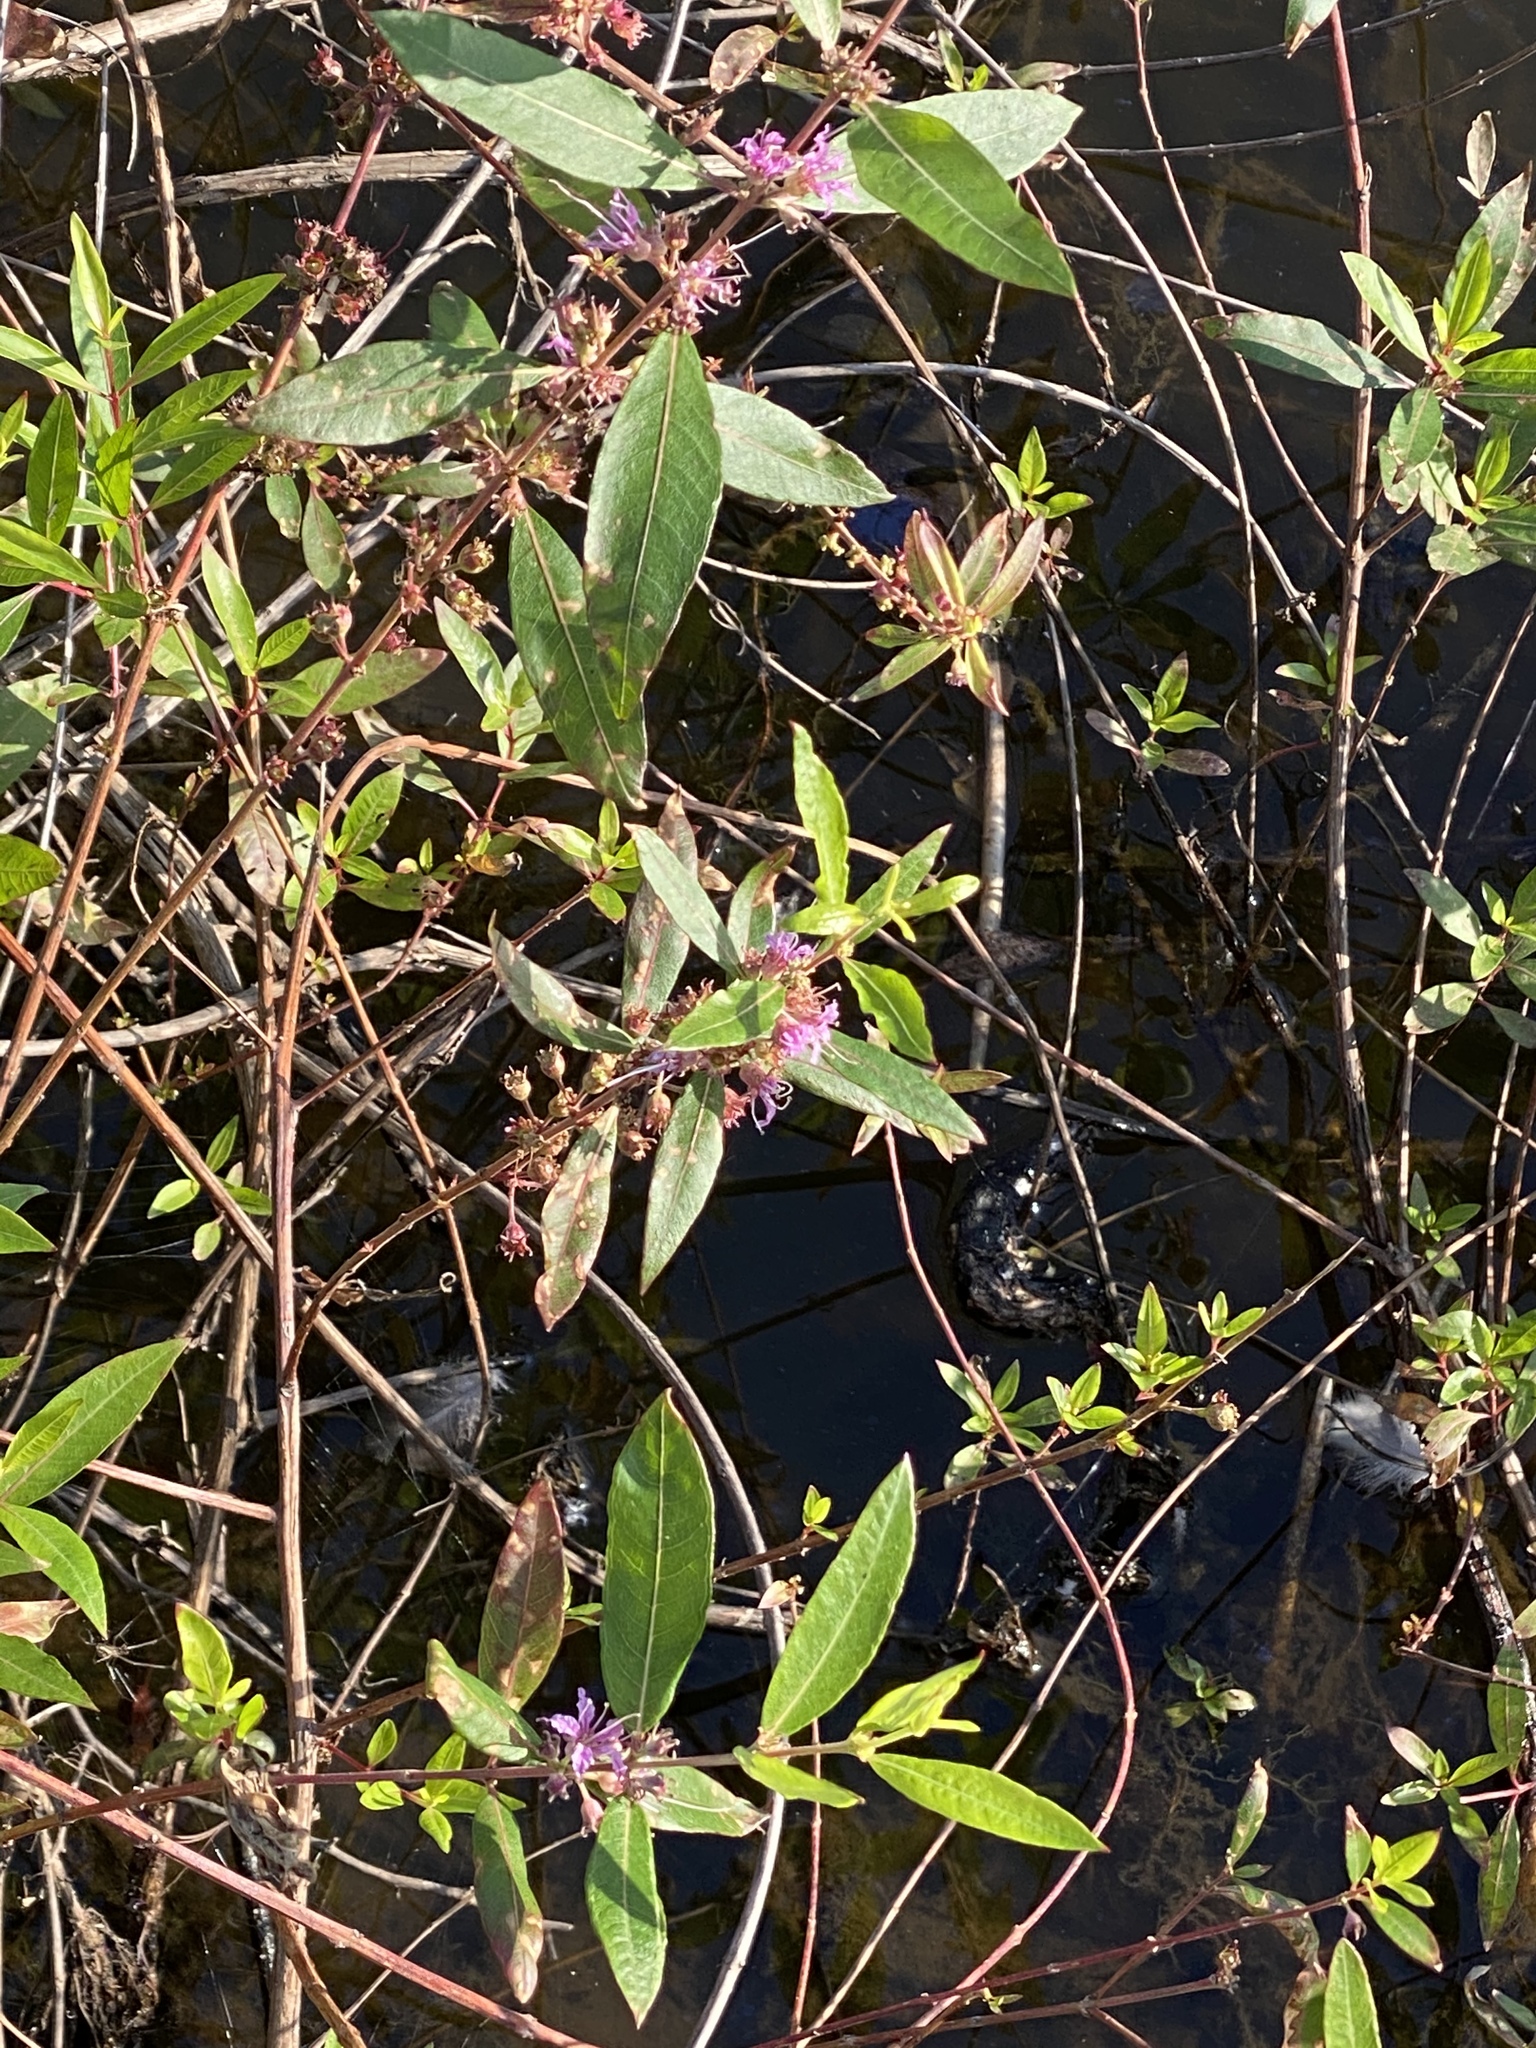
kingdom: Plantae
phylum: Tracheophyta
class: Magnoliopsida
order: Myrtales
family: Lythraceae
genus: Decodon
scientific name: Decodon verticillatus
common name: Hairy swamp loosestrife
